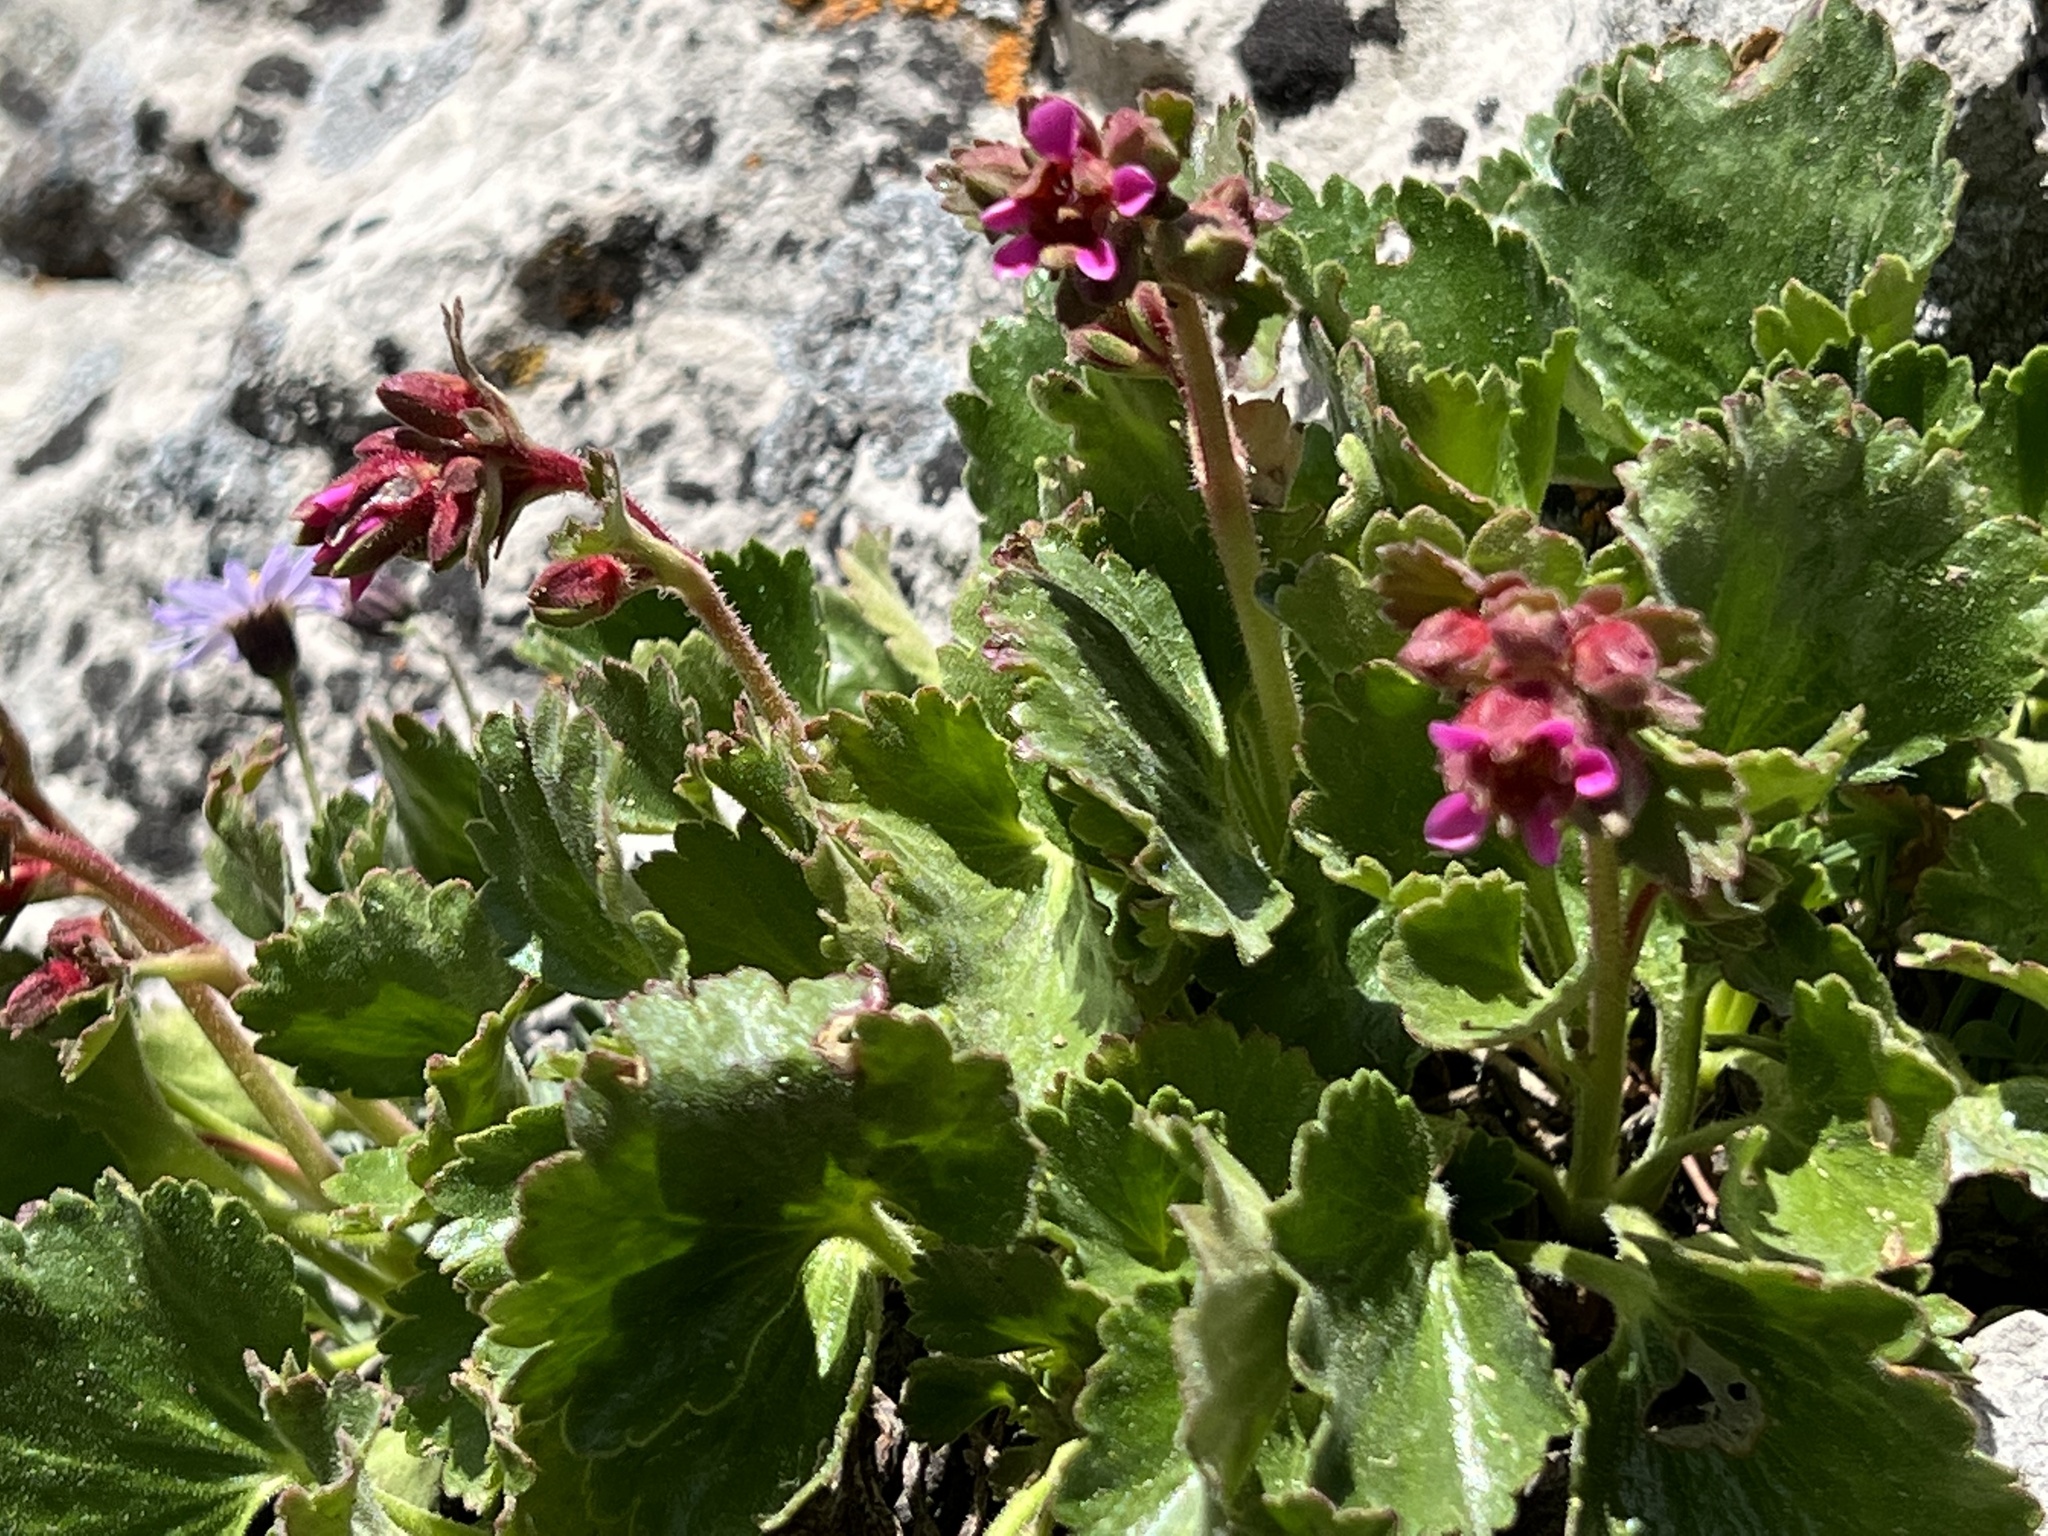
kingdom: Plantae
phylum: Tracheophyta
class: Magnoliopsida
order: Saxifragales
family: Saxifragaceae
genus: Telesonix
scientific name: Telesonix heucheriformis
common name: Alumroot brookfoam
